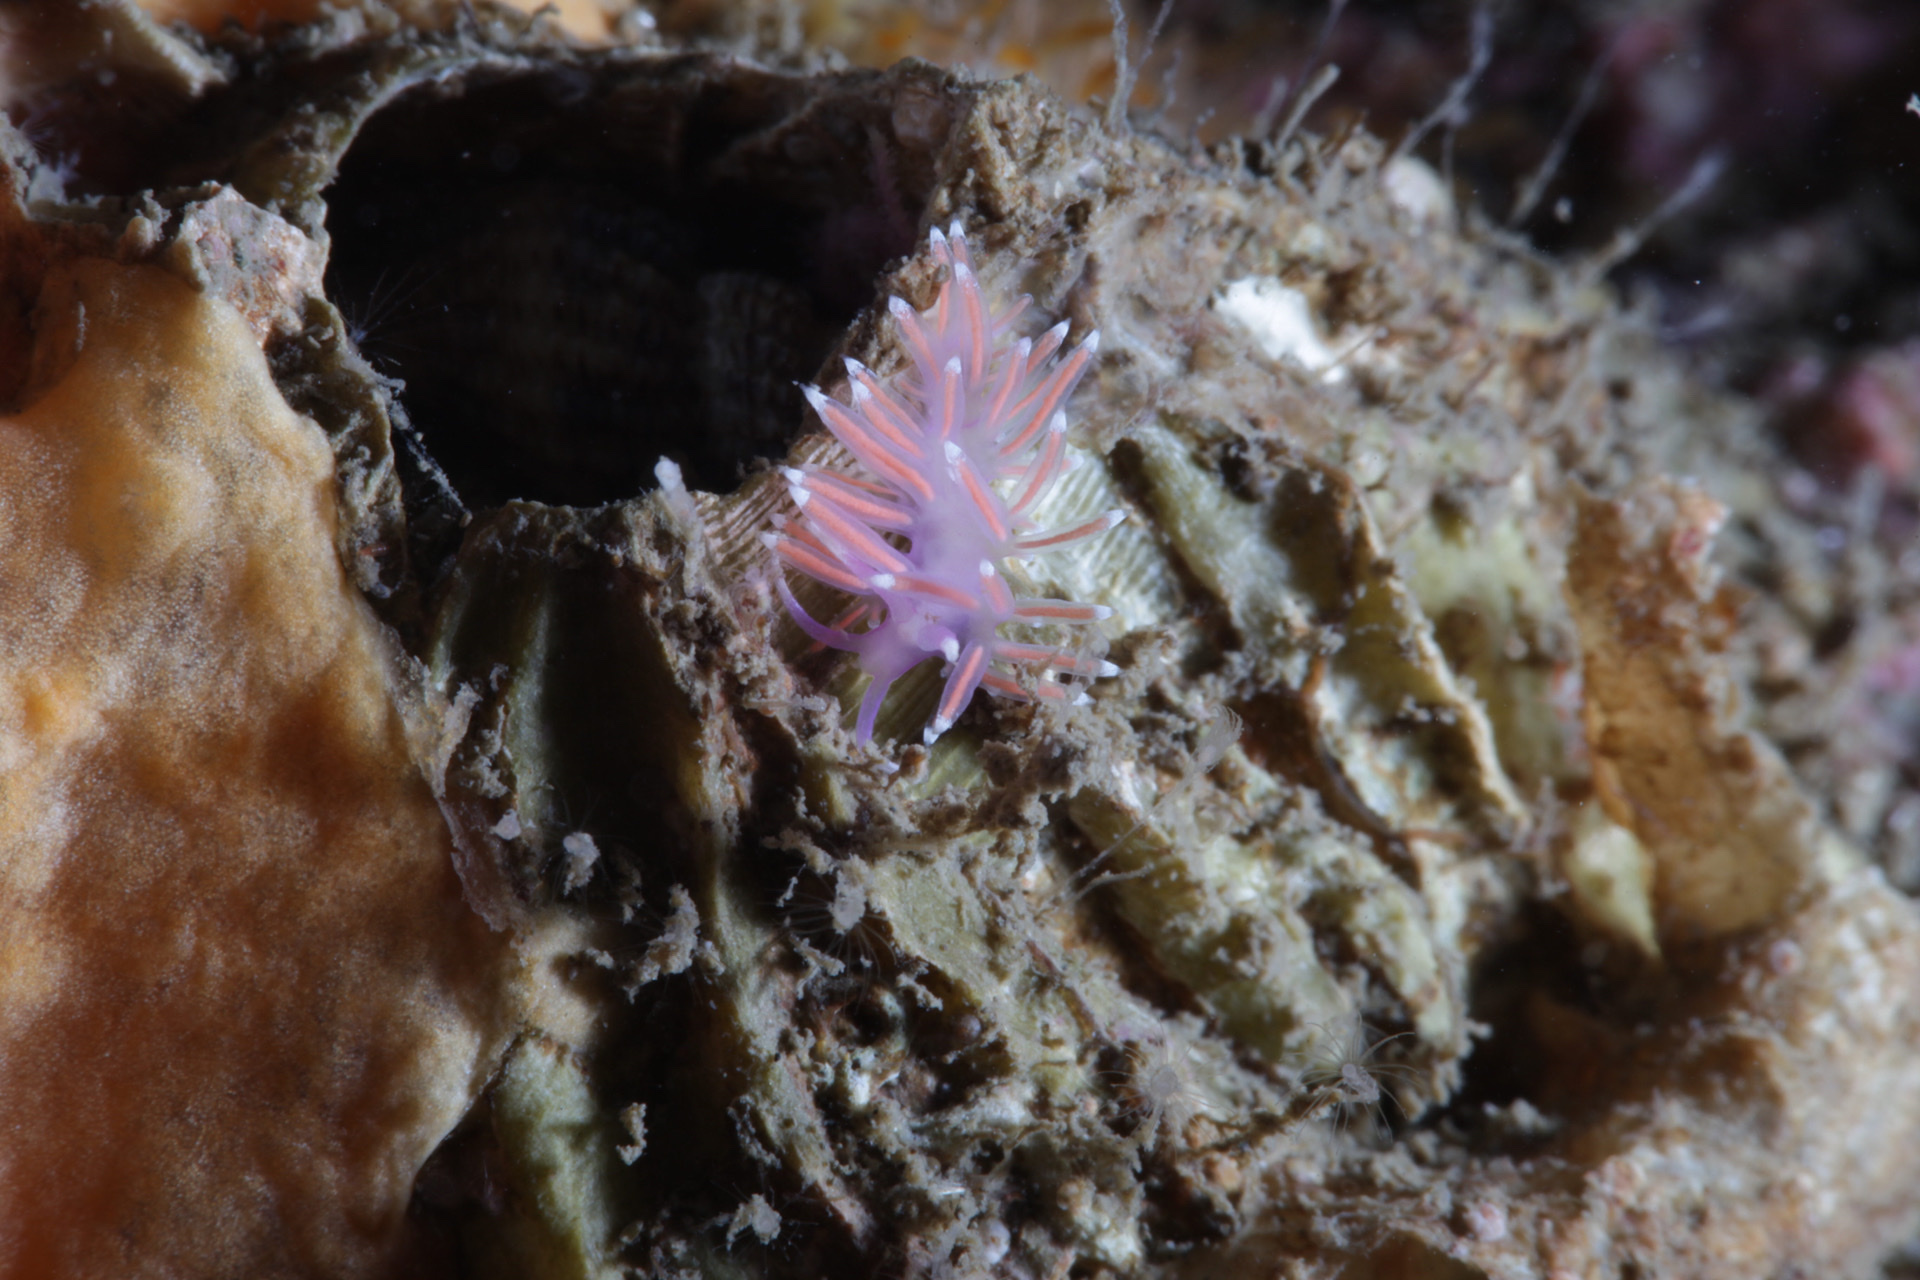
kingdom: Animalia
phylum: Mollusca
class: Gastropoda
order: Nudibranchia
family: Flabellinidae
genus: Edmundsella
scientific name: Edmundsella pedata
